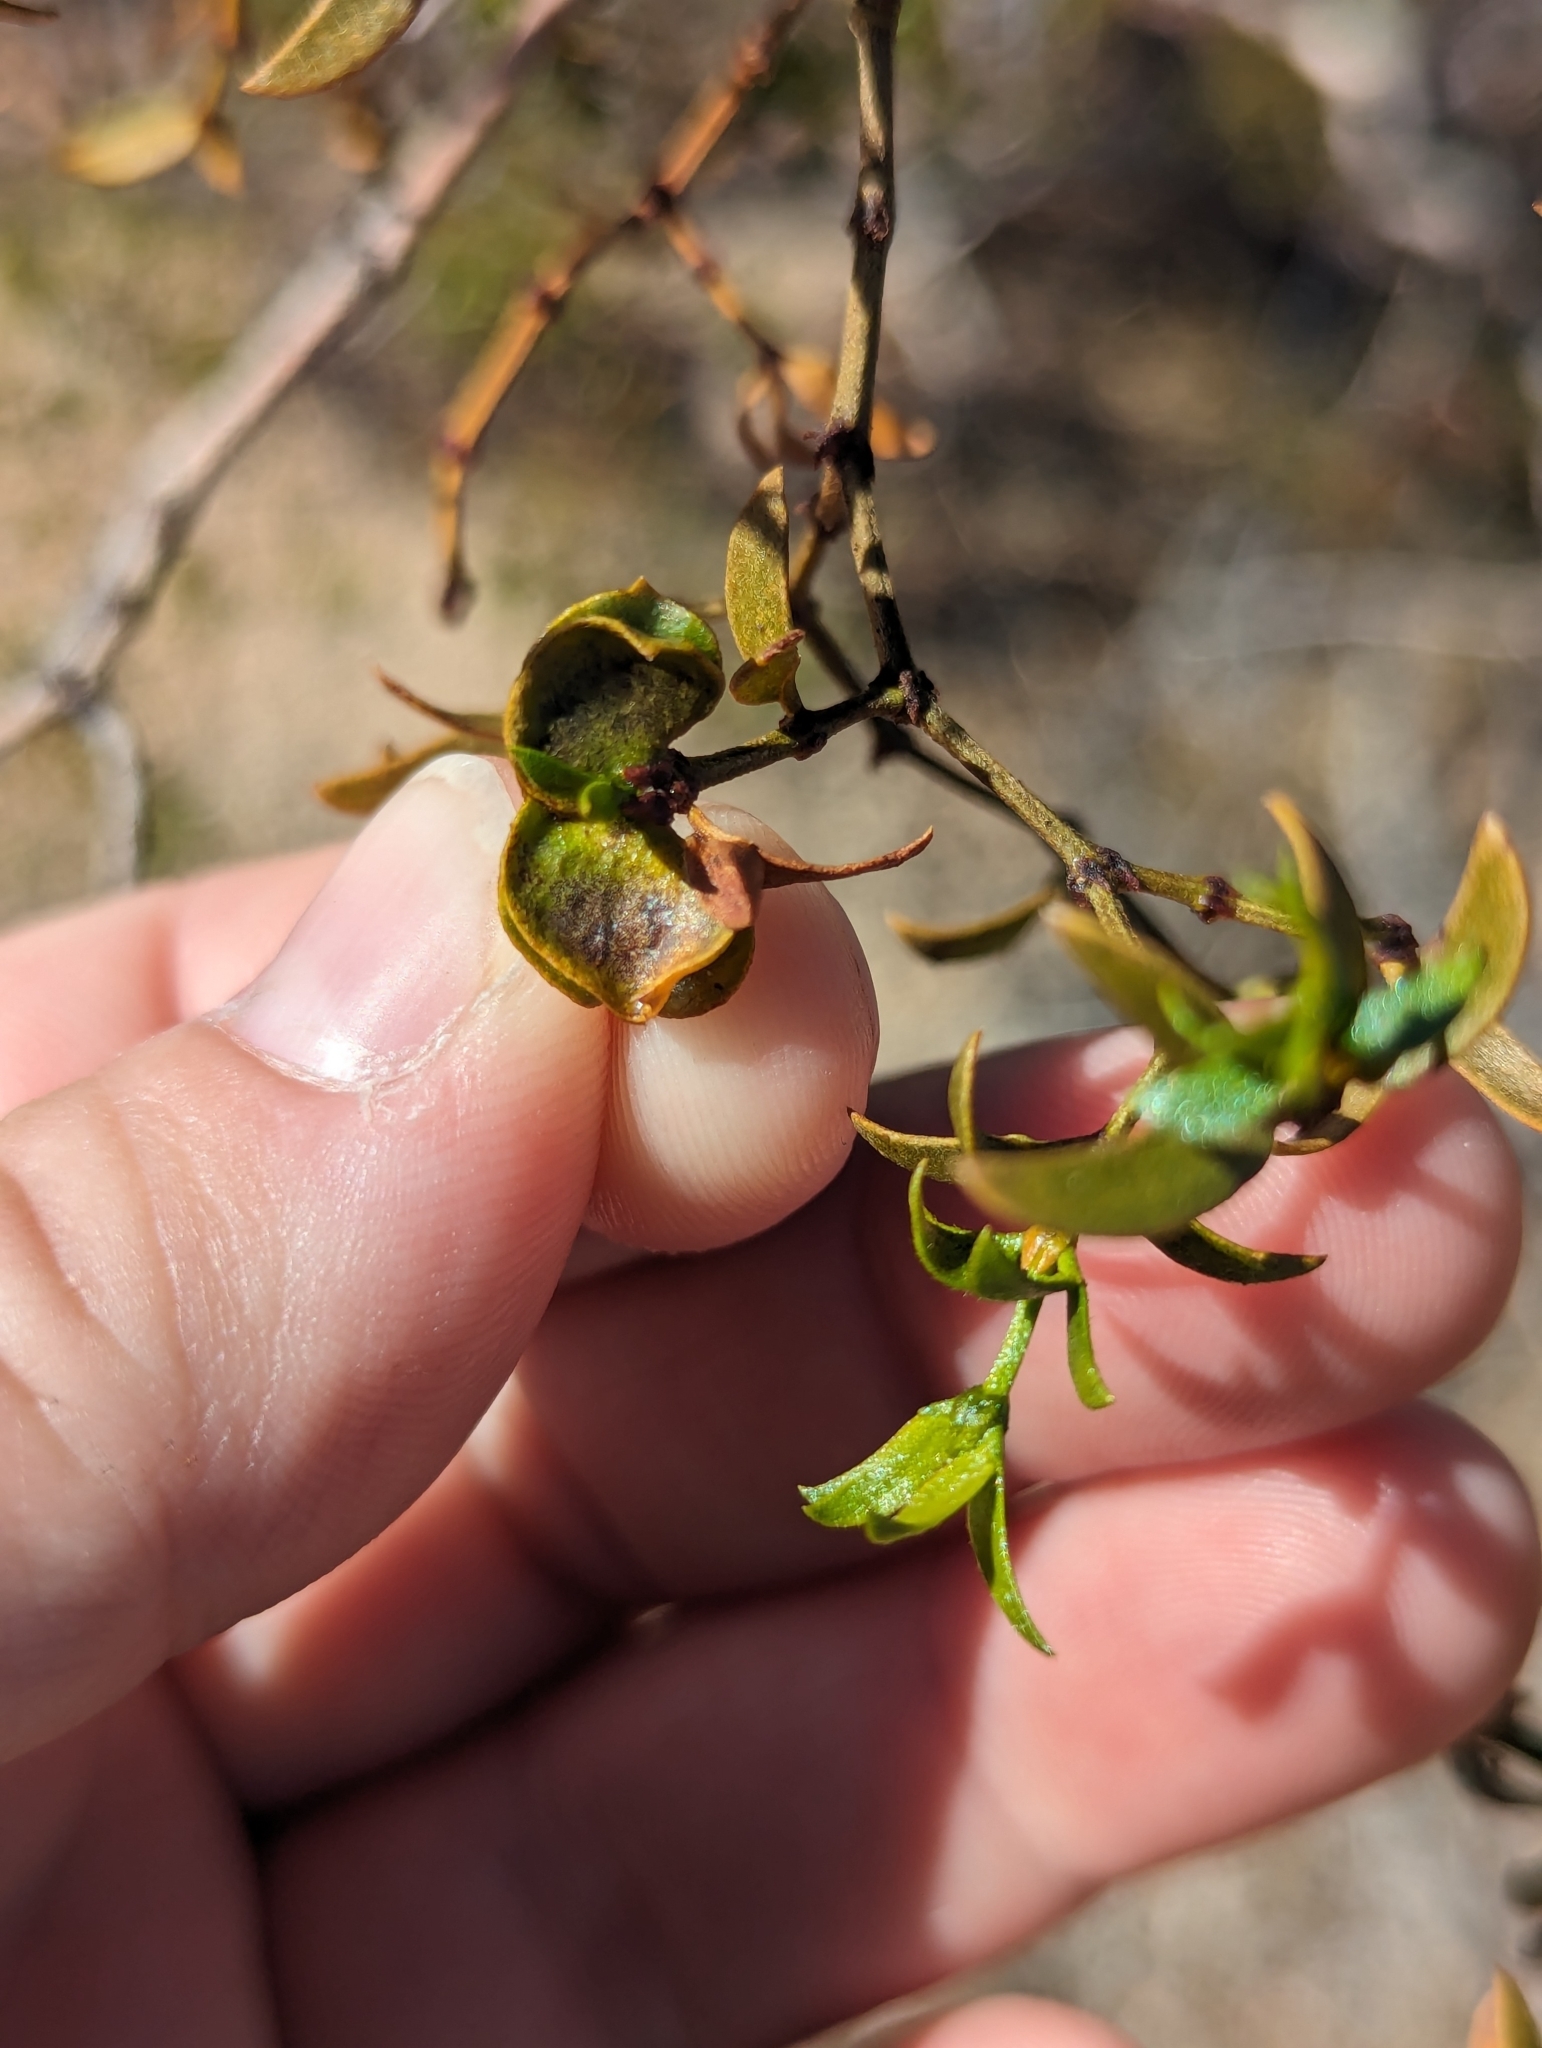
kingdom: Animalia
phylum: Arthropoda
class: Insecta
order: Diptera
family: Cecidomyiidae
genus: Contarinia
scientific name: Contarinia
